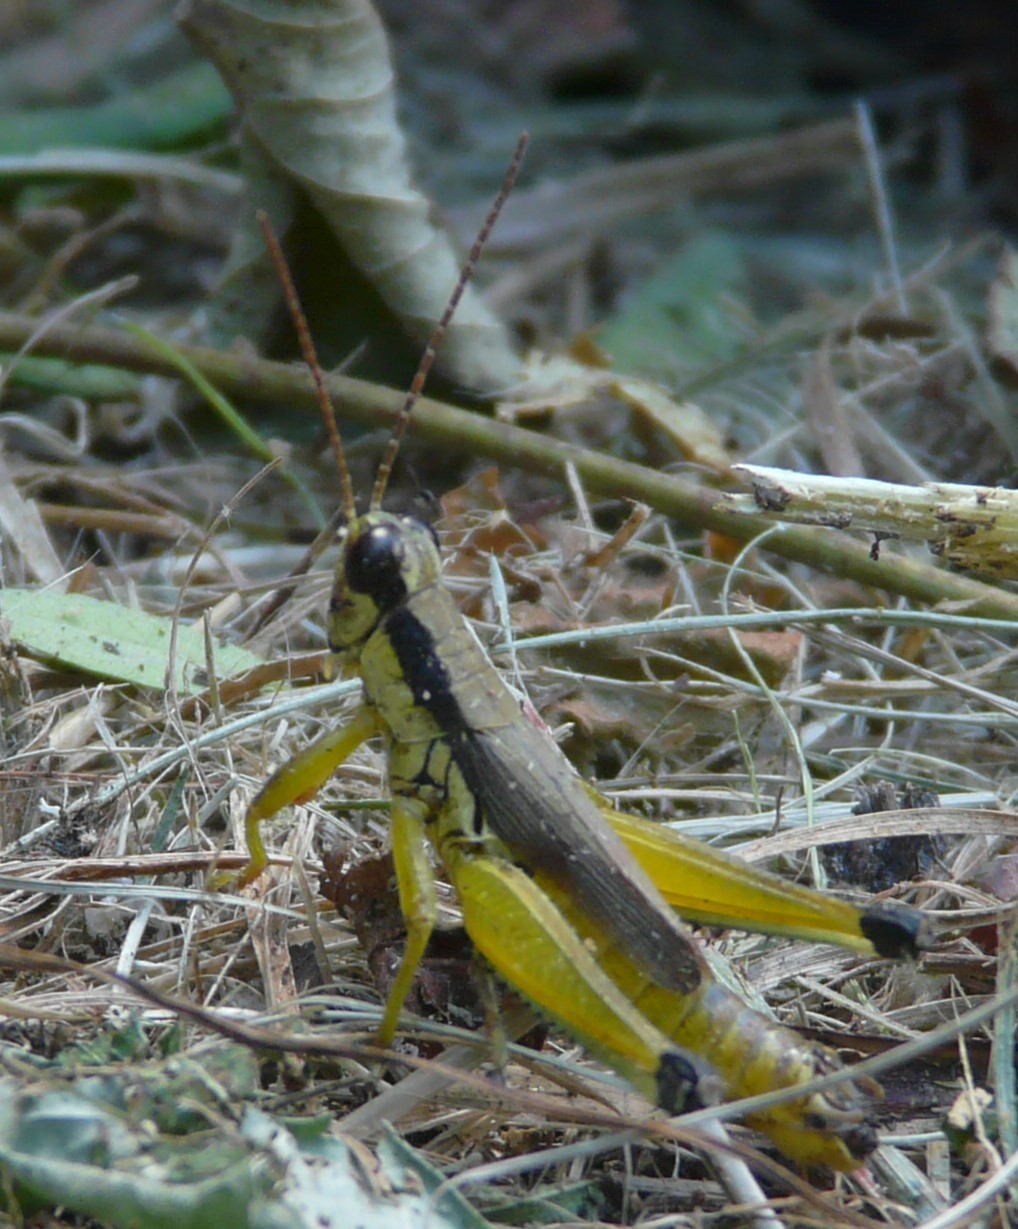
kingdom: Animalia
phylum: Arthropoda
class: Insecta
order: Orthoptera
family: Acrididae
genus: Paroxya
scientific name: Paroxya clavuligera
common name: Olive-green swamp grasshopper
